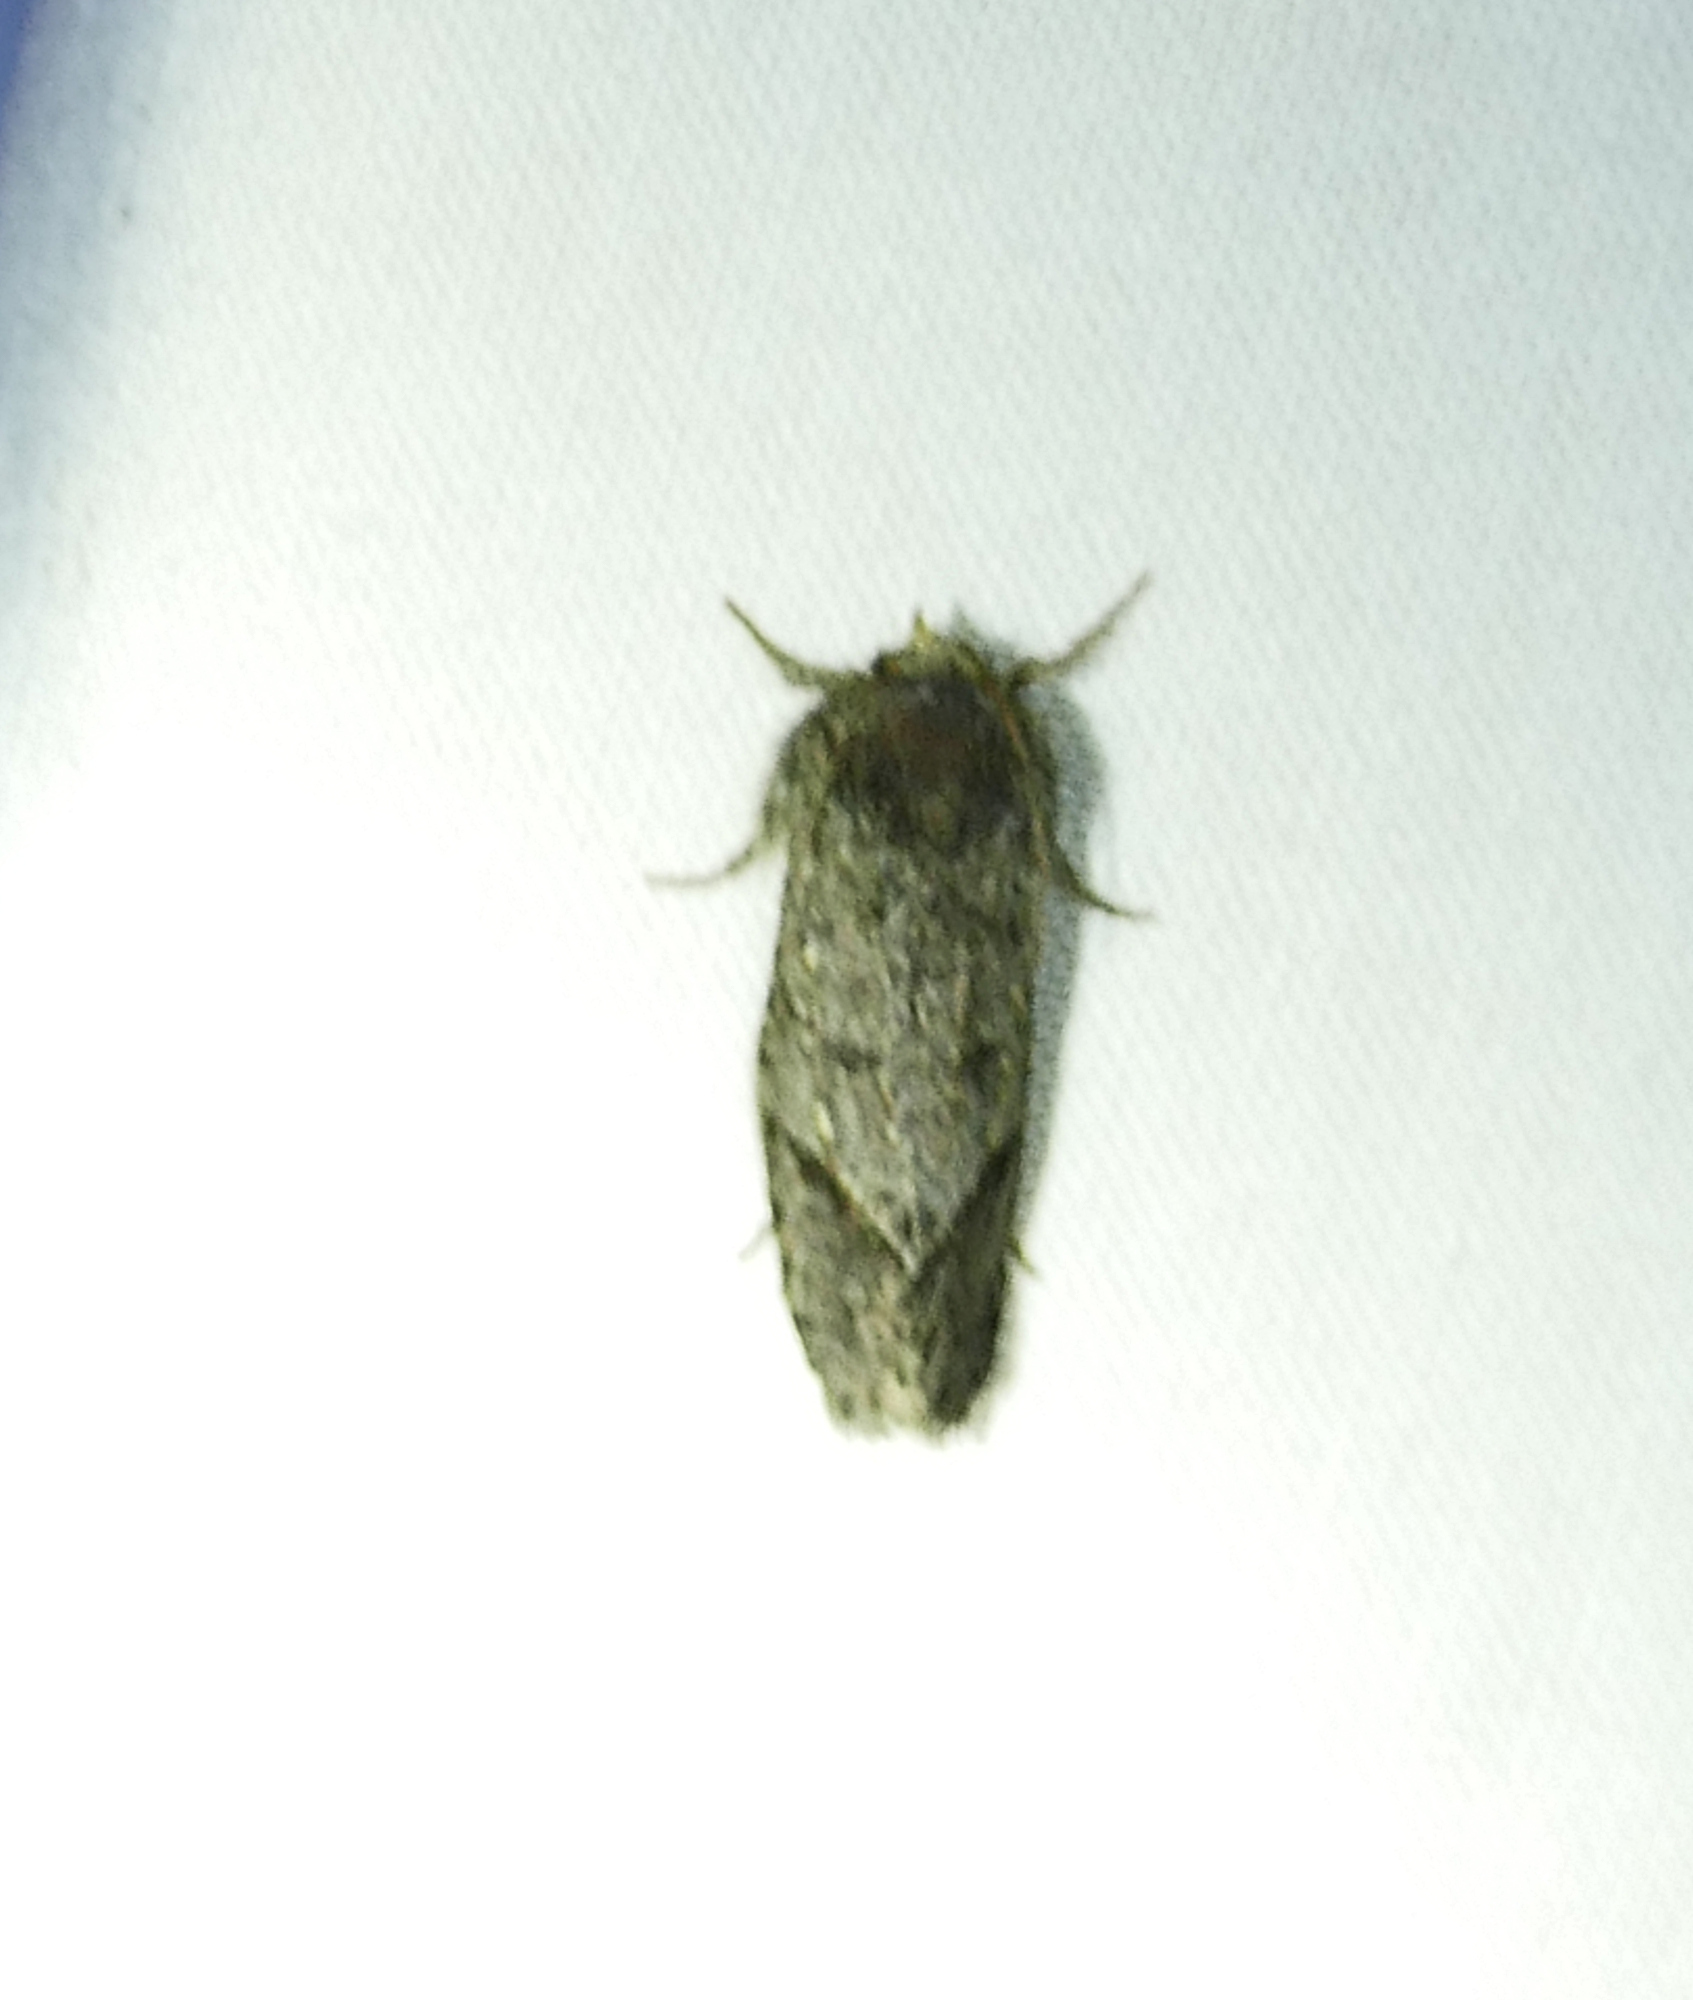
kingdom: Animalia
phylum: Arthropoda
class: Insecta
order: Lepidoptera
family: Tineidae
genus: Acrolophus
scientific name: Acrolophus filicornis
